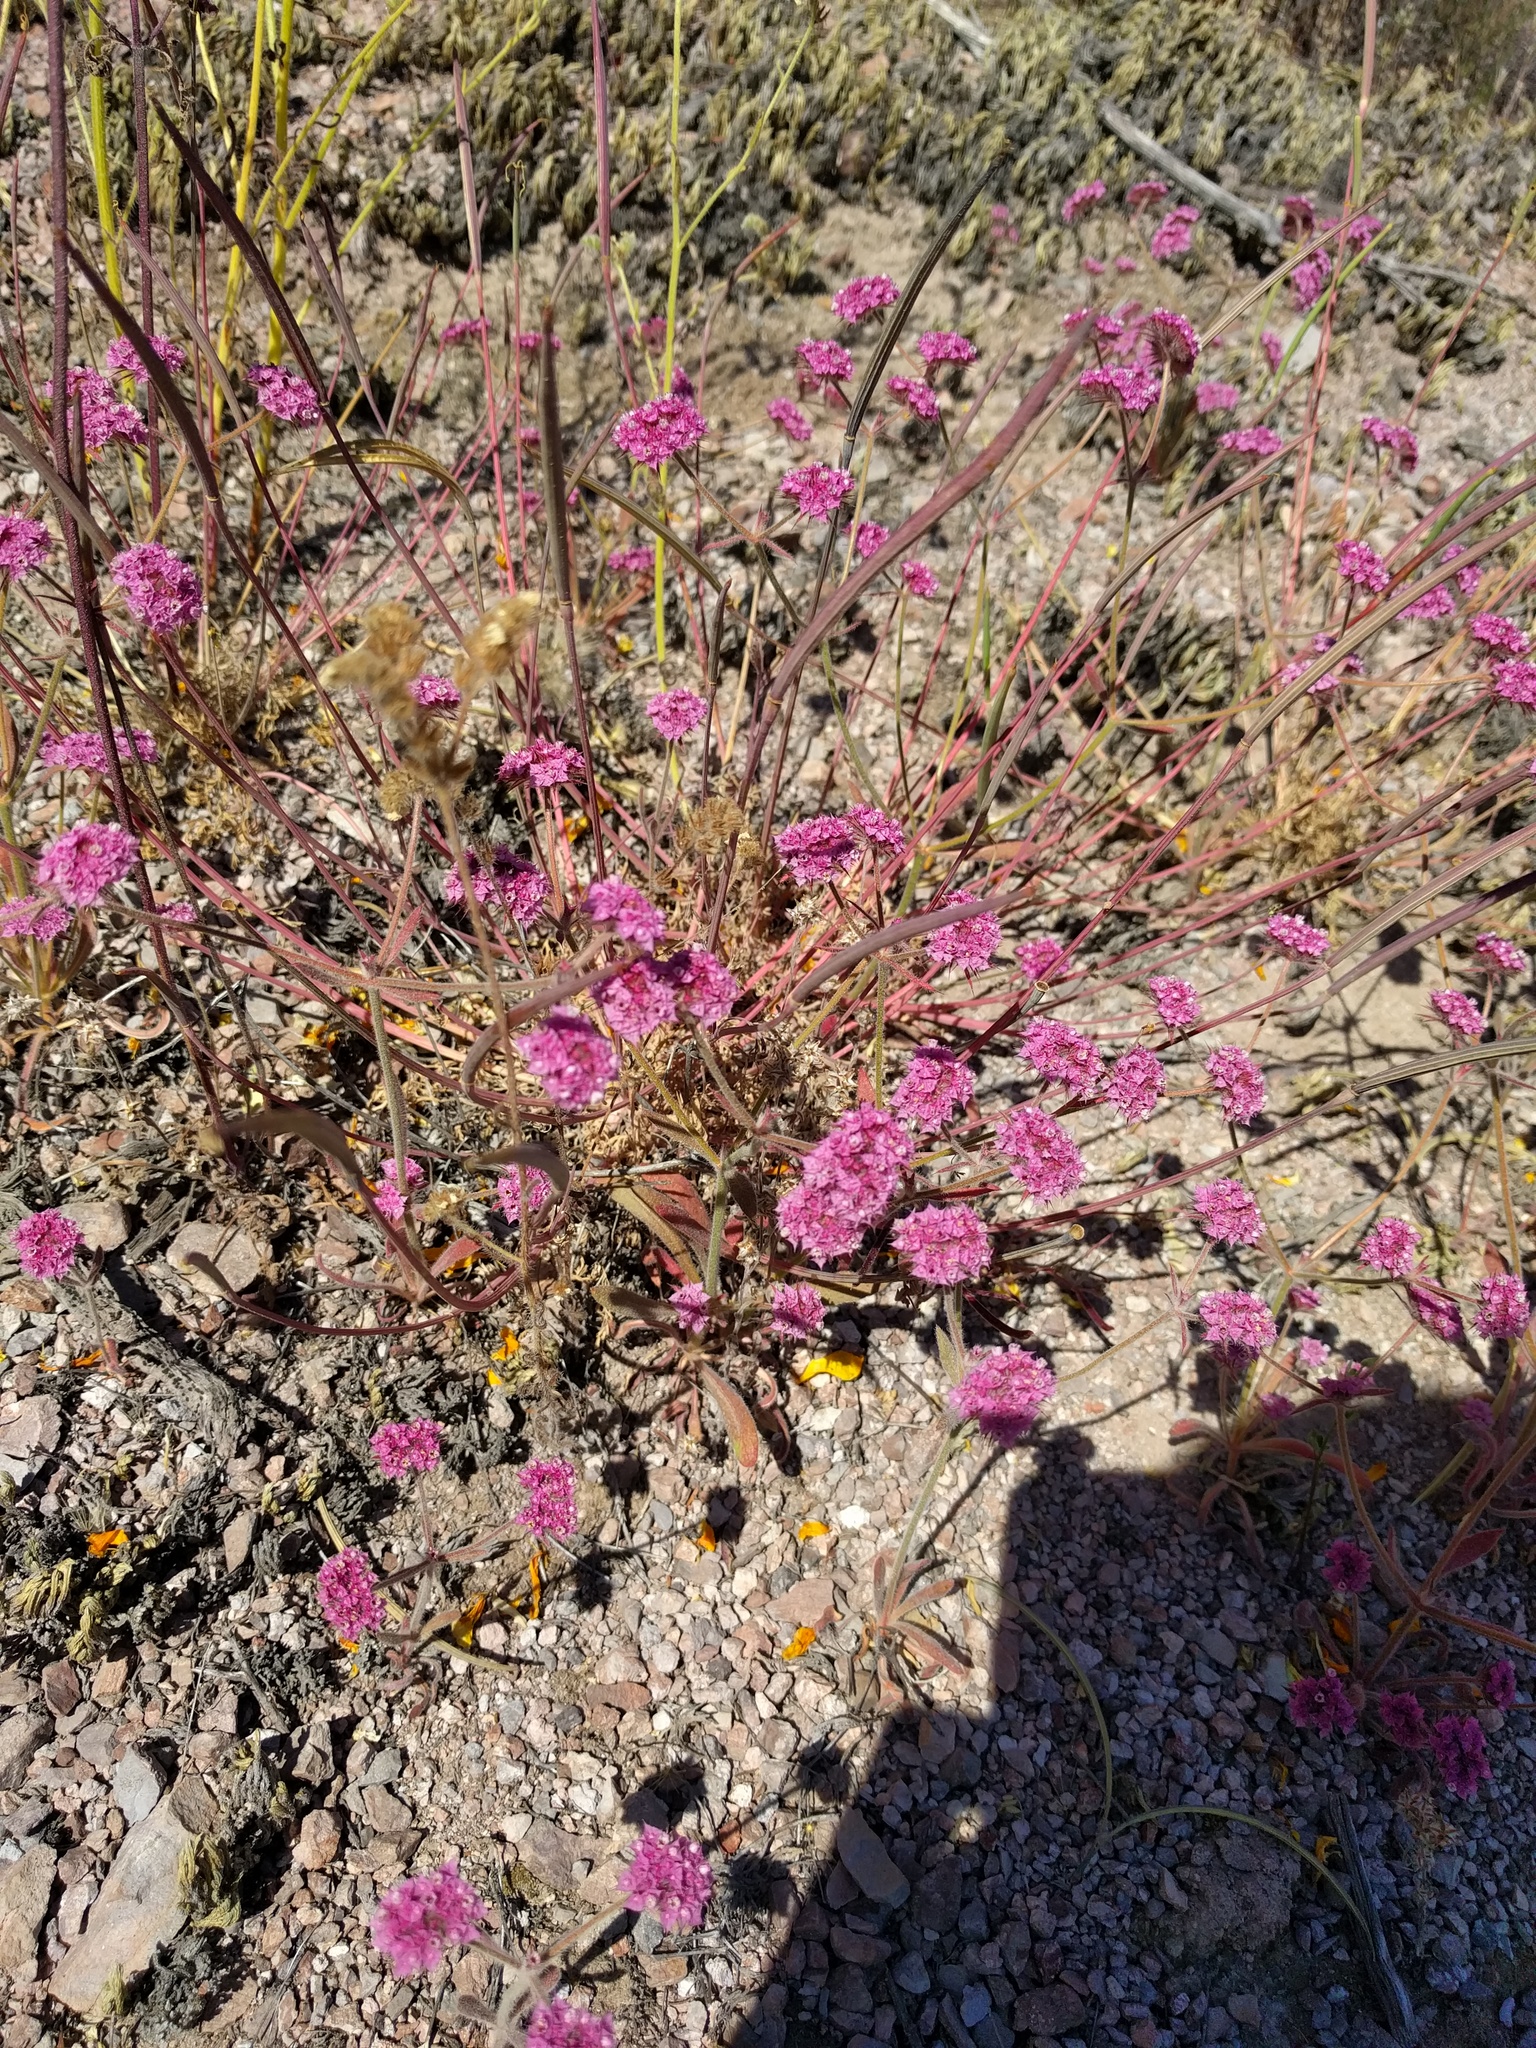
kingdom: Plantae
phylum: Tracheophyta
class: Magnoliopsida
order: Caryophyllales
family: Polygonaceae
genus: Chorizanthe
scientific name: Chorizanthe douglasii
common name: Douglas's spineflower
